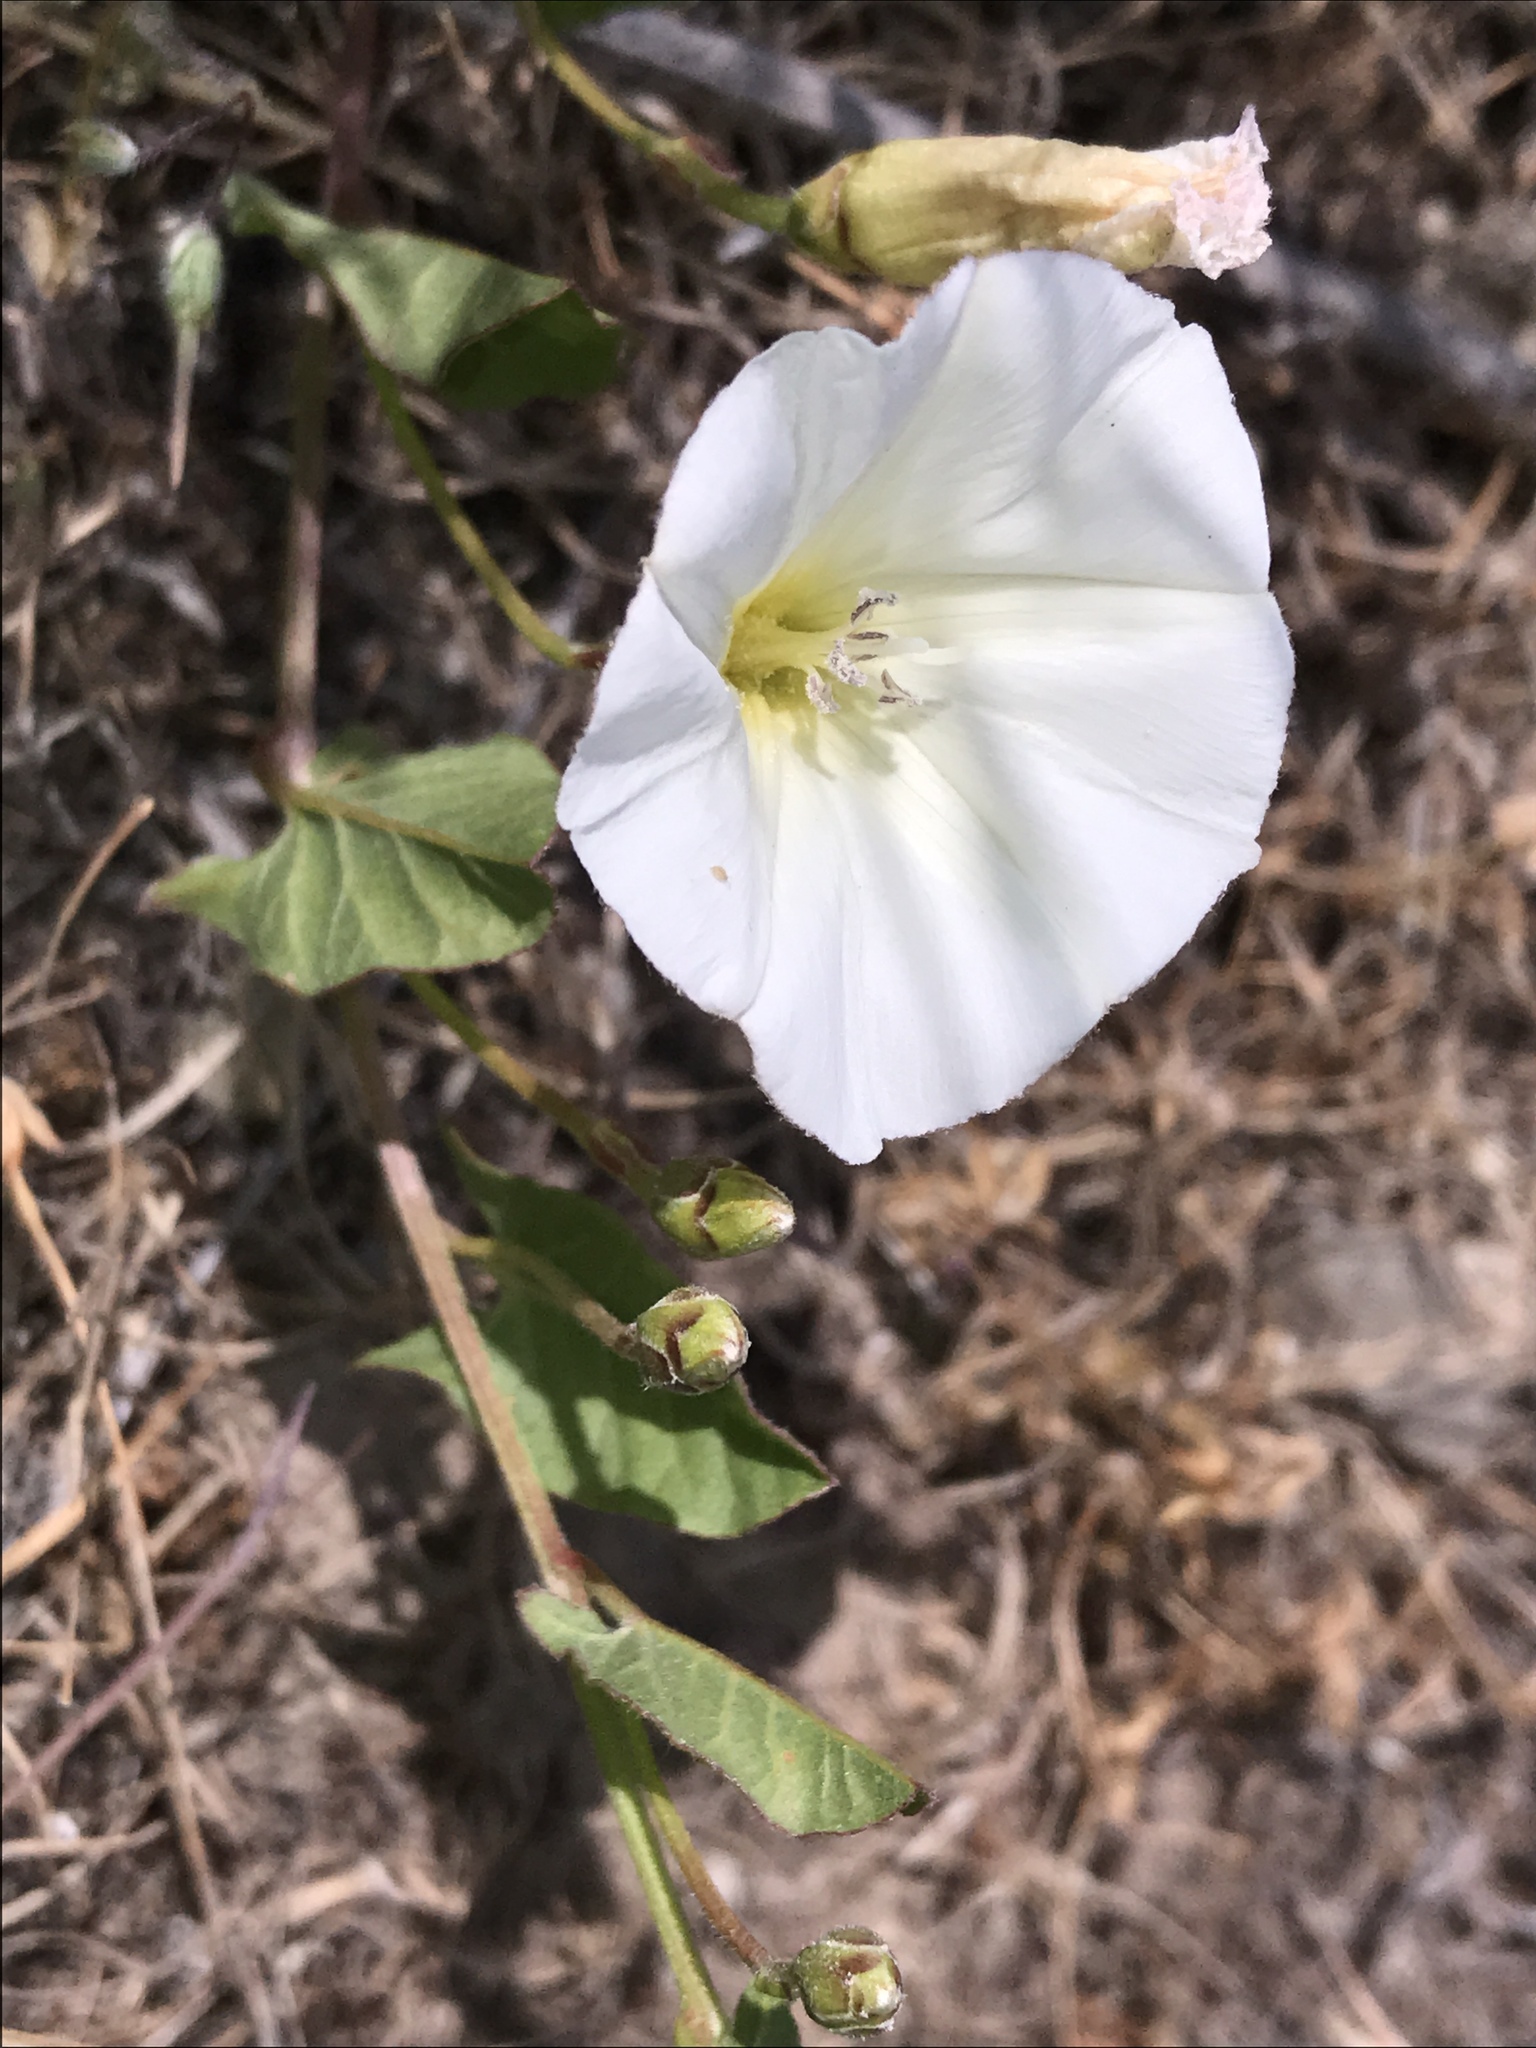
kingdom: Plantae
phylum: Tracheophyta
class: Magnoliopsida
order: Solanales
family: Convolvulaceae
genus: Convolvulus
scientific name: Convolvulus arvensis
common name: Field bindweed
